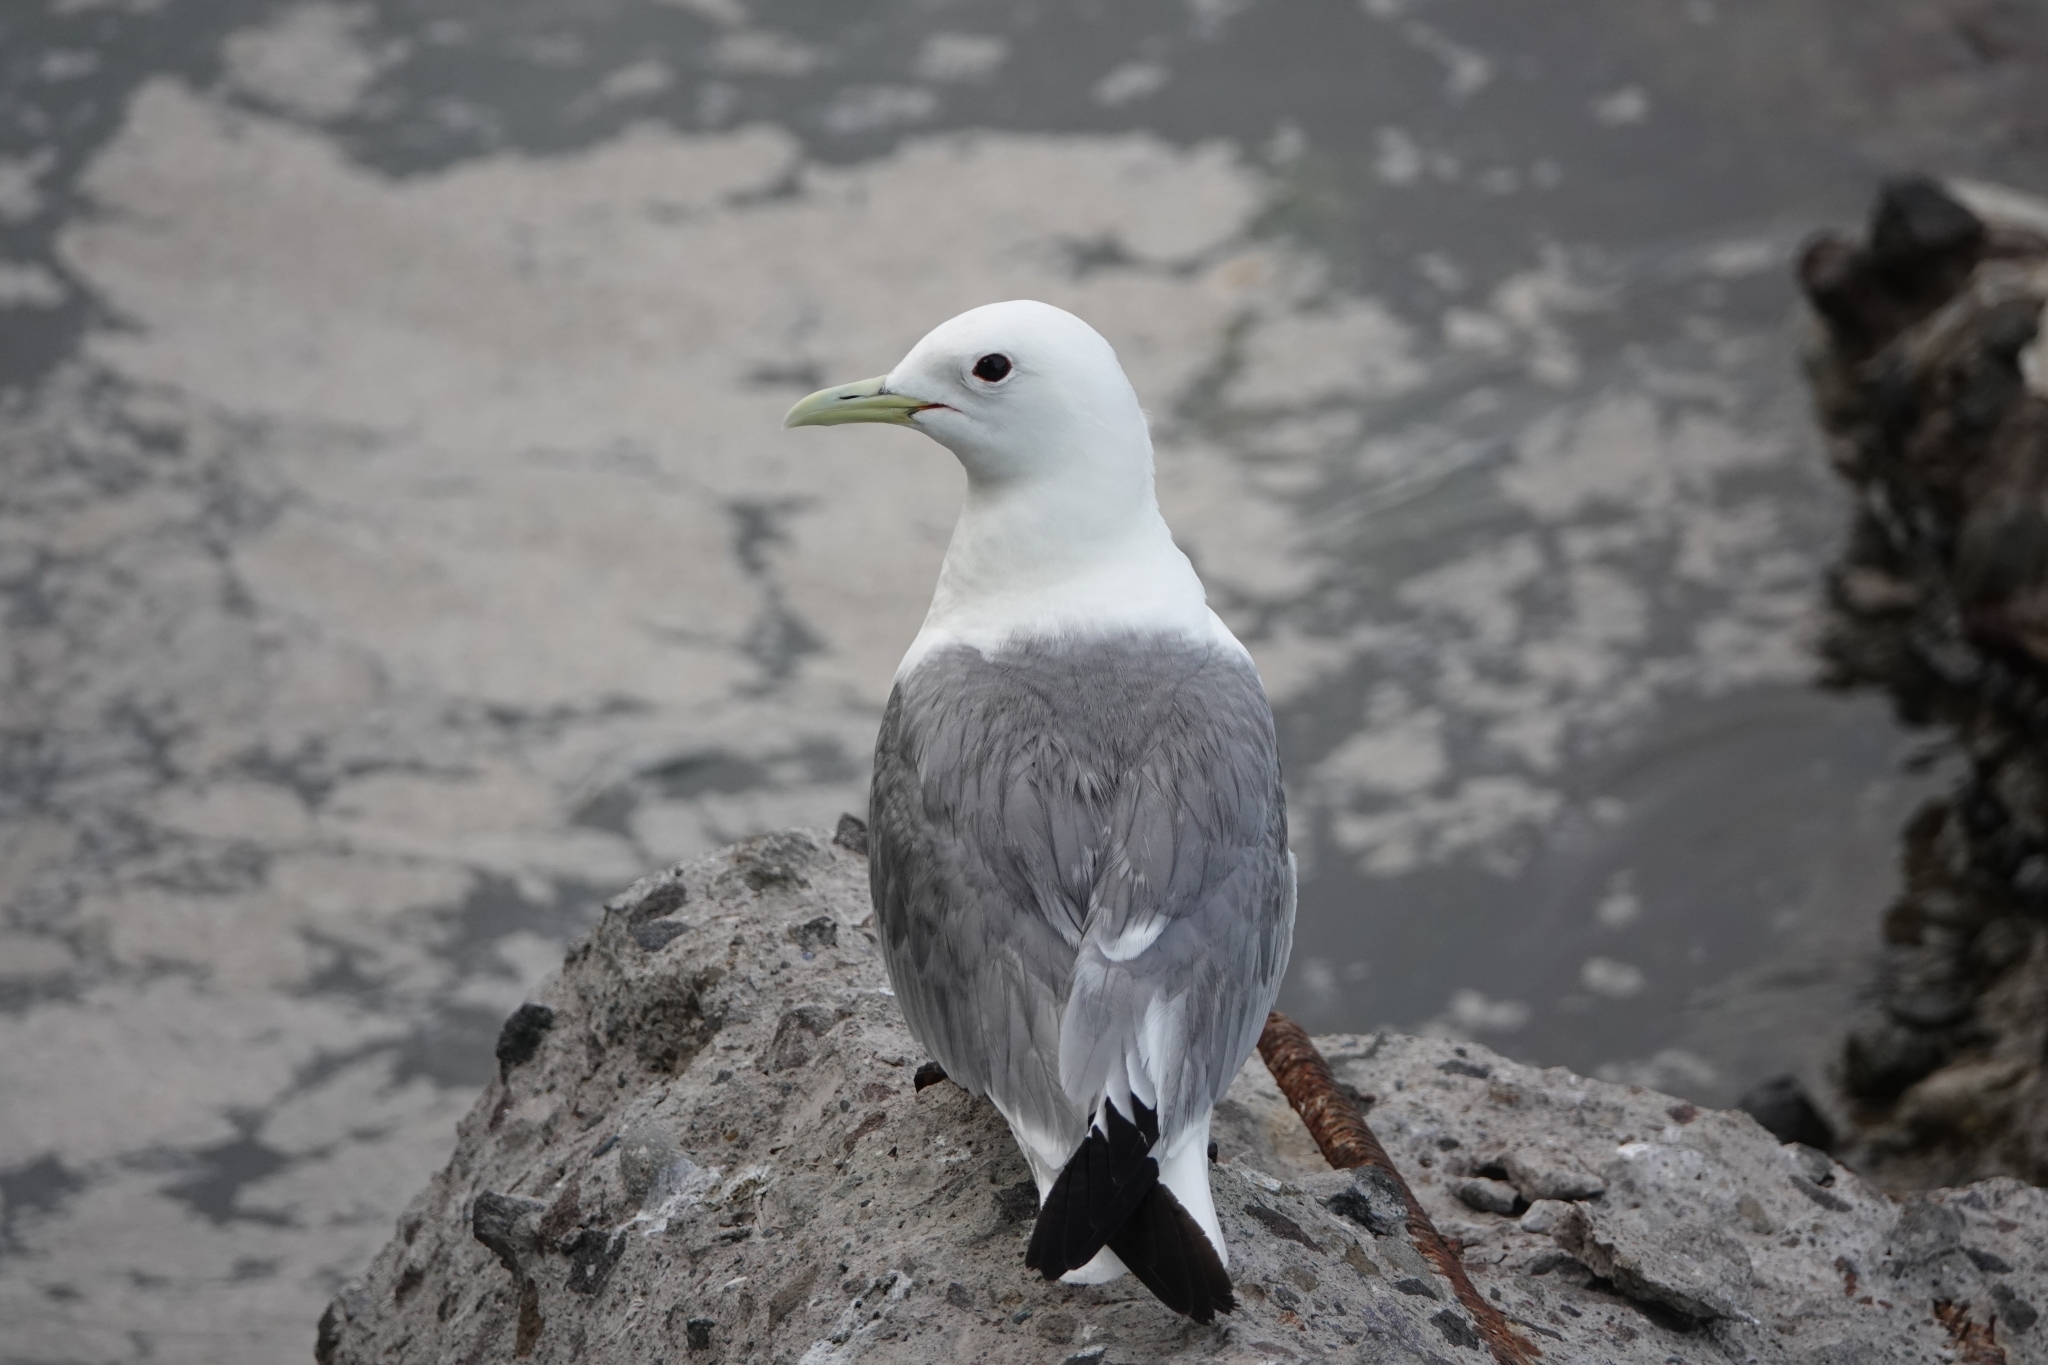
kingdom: Animalia
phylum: Chordata
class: Aves
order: Charadriiformes
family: Laridae
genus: Rissa
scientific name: Rissa tridactyla
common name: Black-legged kittiwake
